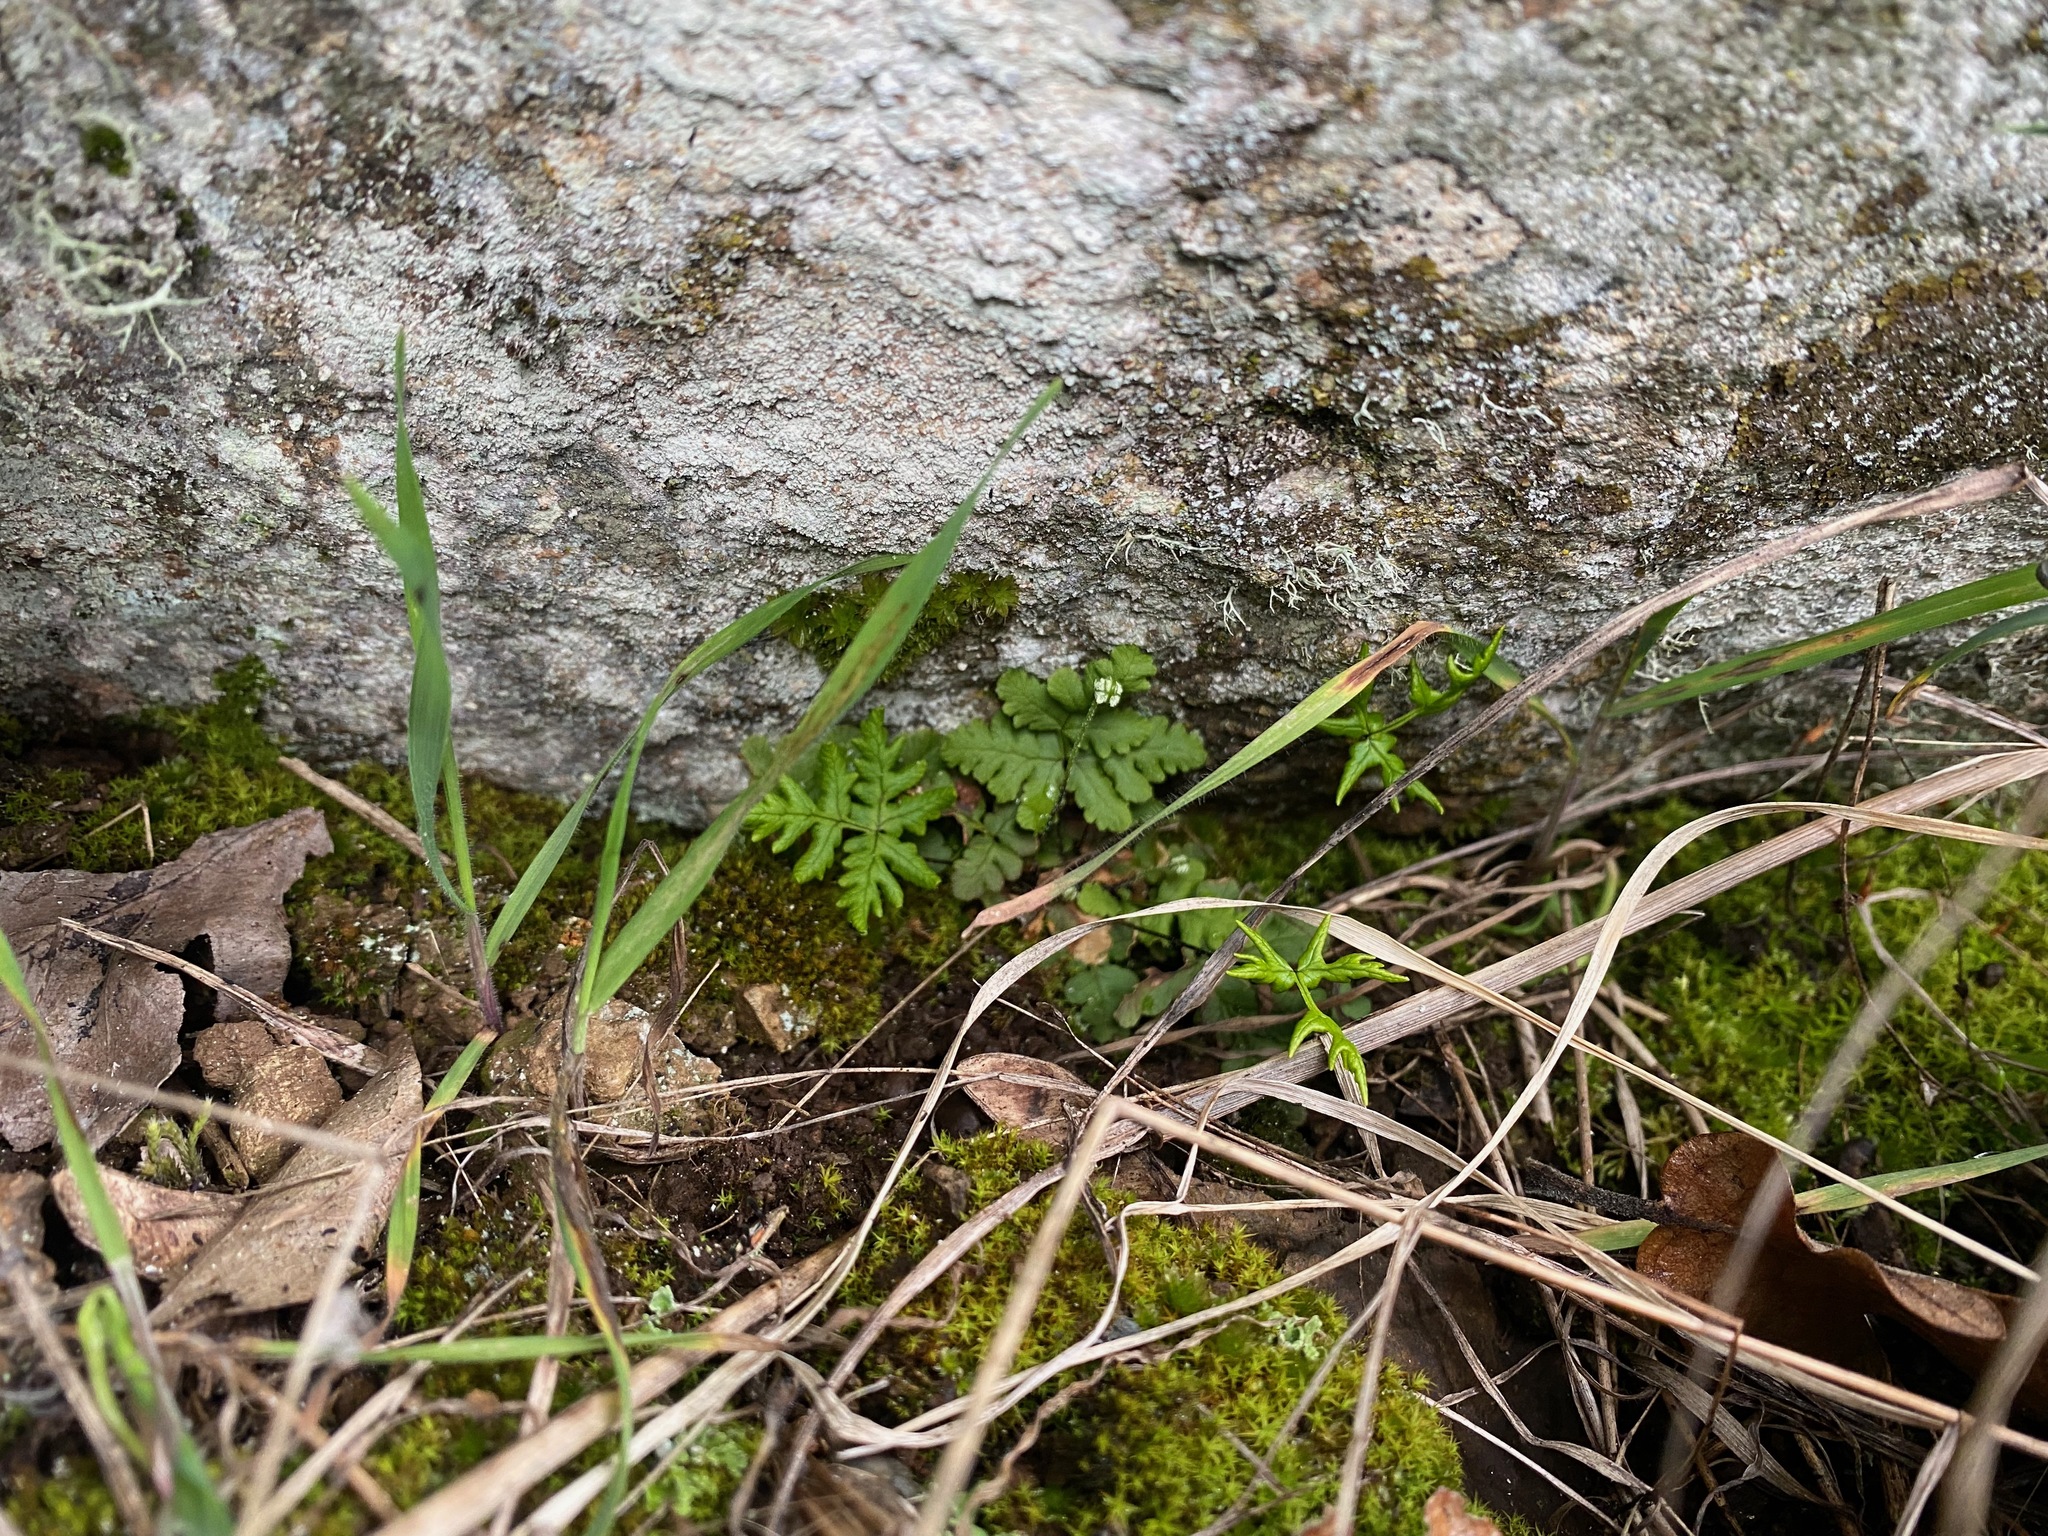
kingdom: Plantae
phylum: Tracheophyta
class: Polypodiopsida
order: Polypodiales
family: Pteridaceae
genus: Pentagramma
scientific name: Pentagramma triangularis
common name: Gold fern
